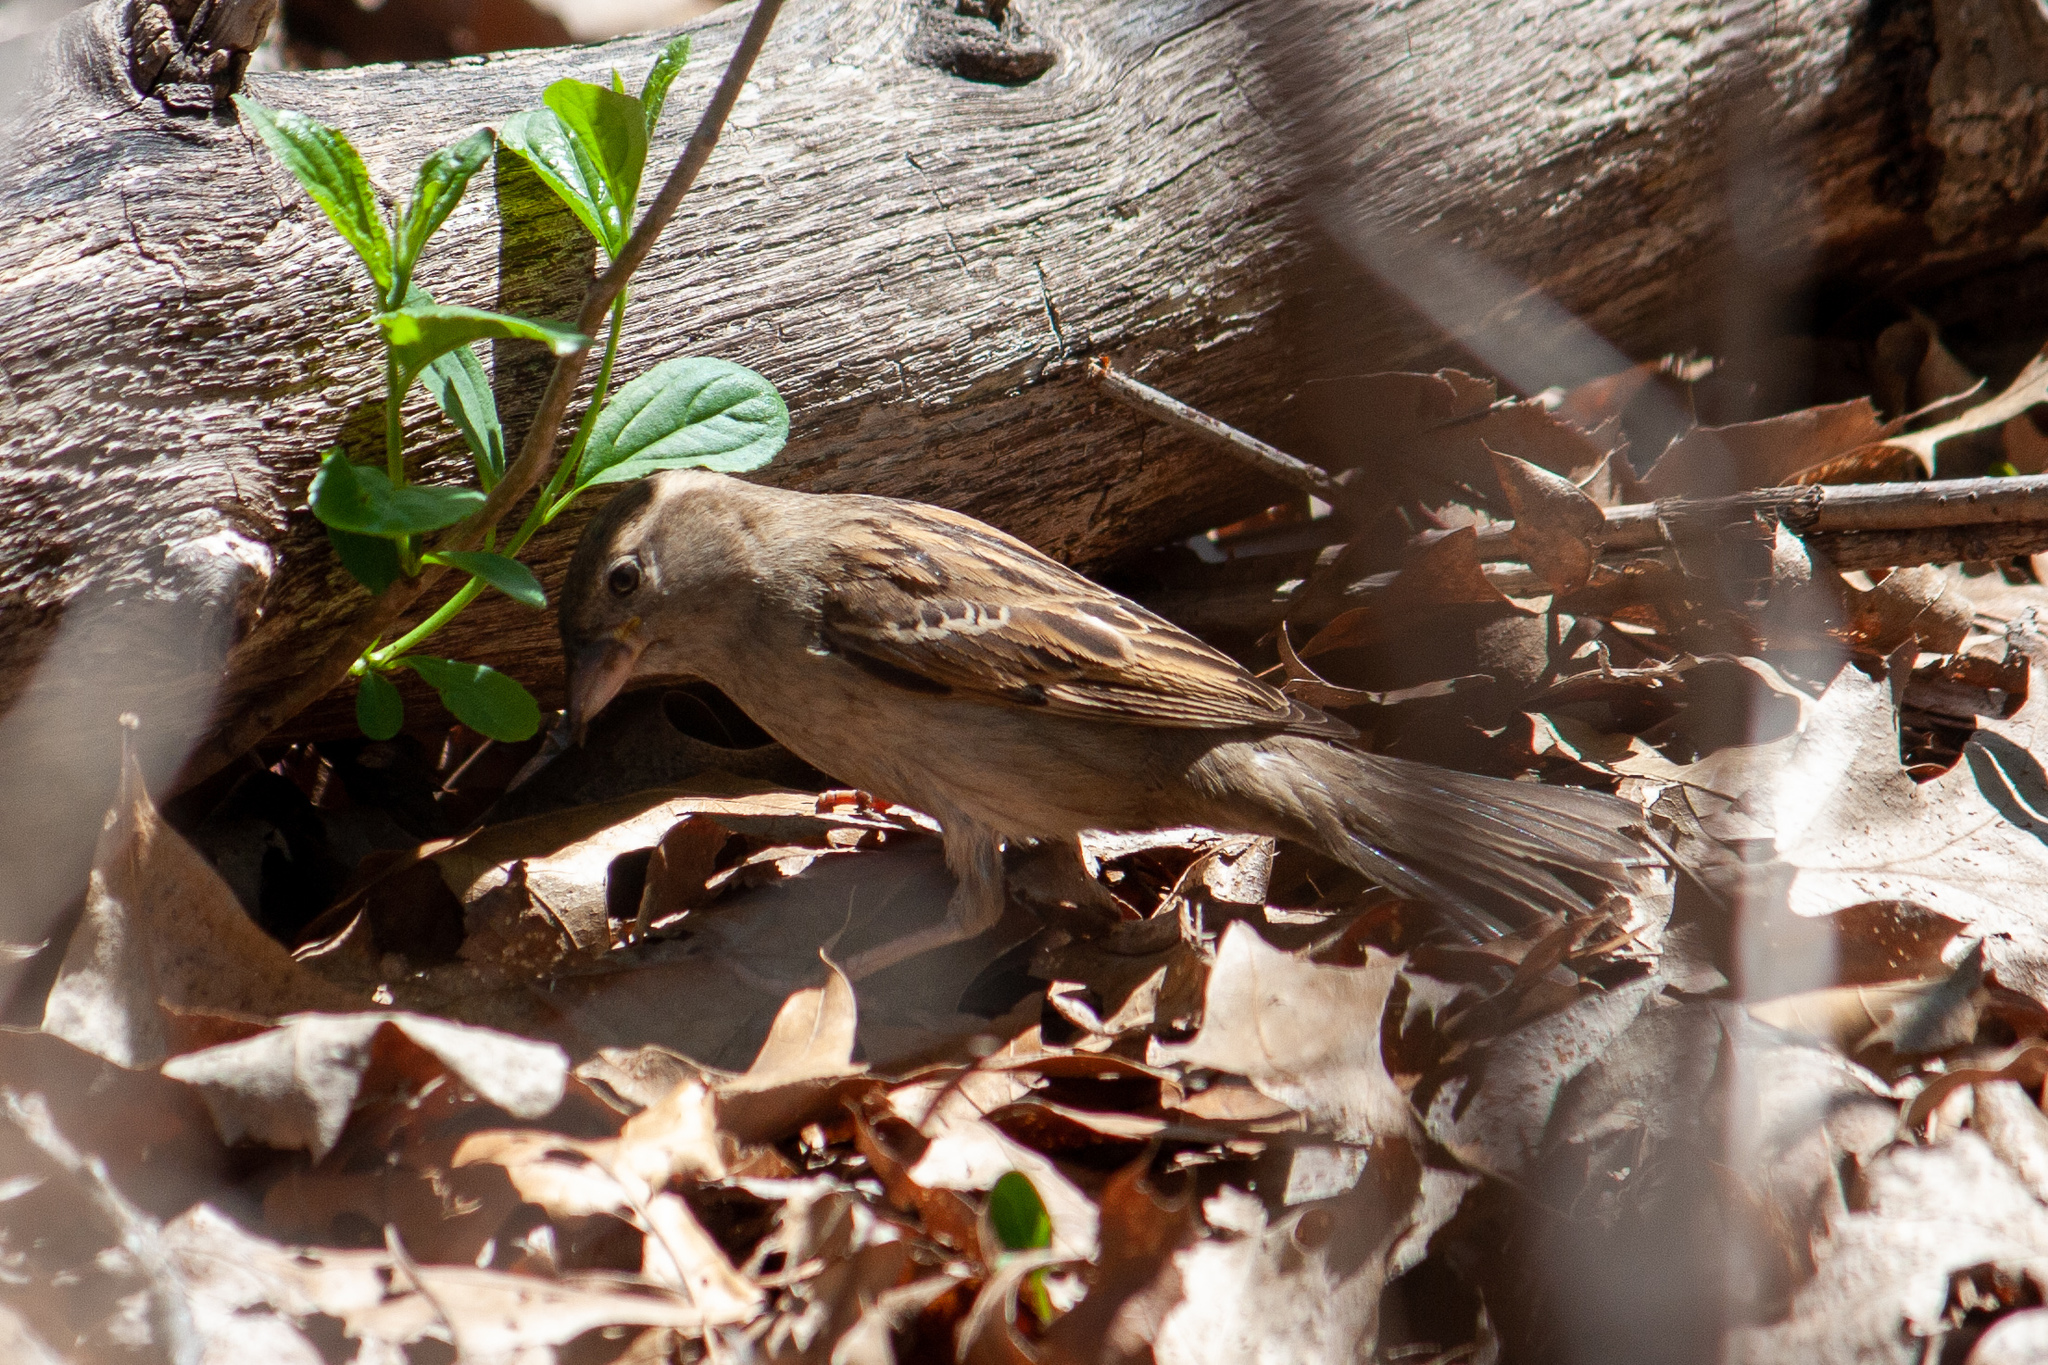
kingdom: Animalia
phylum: Chordata
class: Aves
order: Passeriformes
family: Passeridae
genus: Passer
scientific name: Passer domesticus
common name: House sparrow
